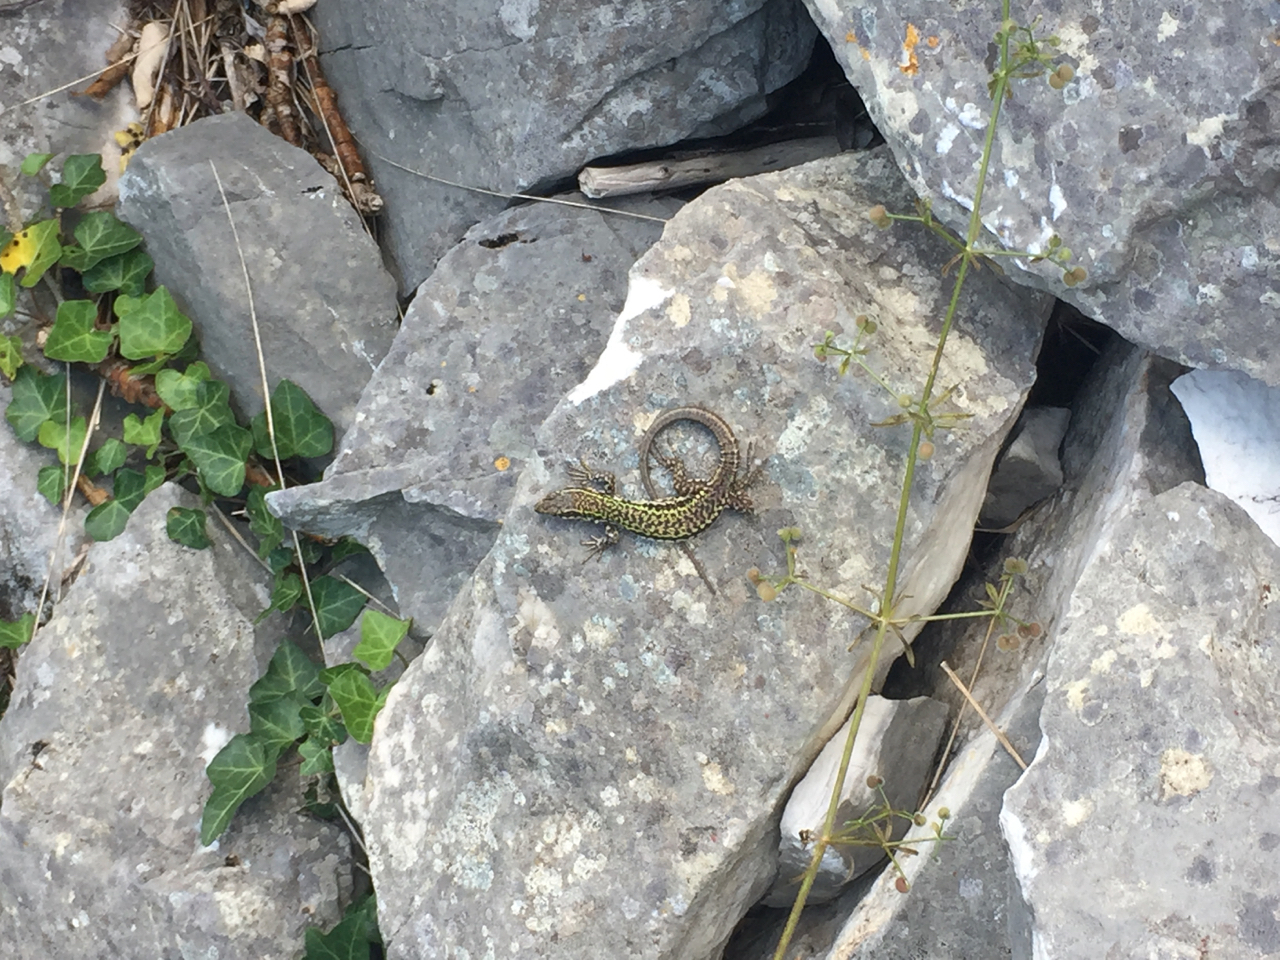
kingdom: Animalia
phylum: Chordata
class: Squamata
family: Lacertidae
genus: Podarcis
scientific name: Podarcis muralis
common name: Common wall lizard
